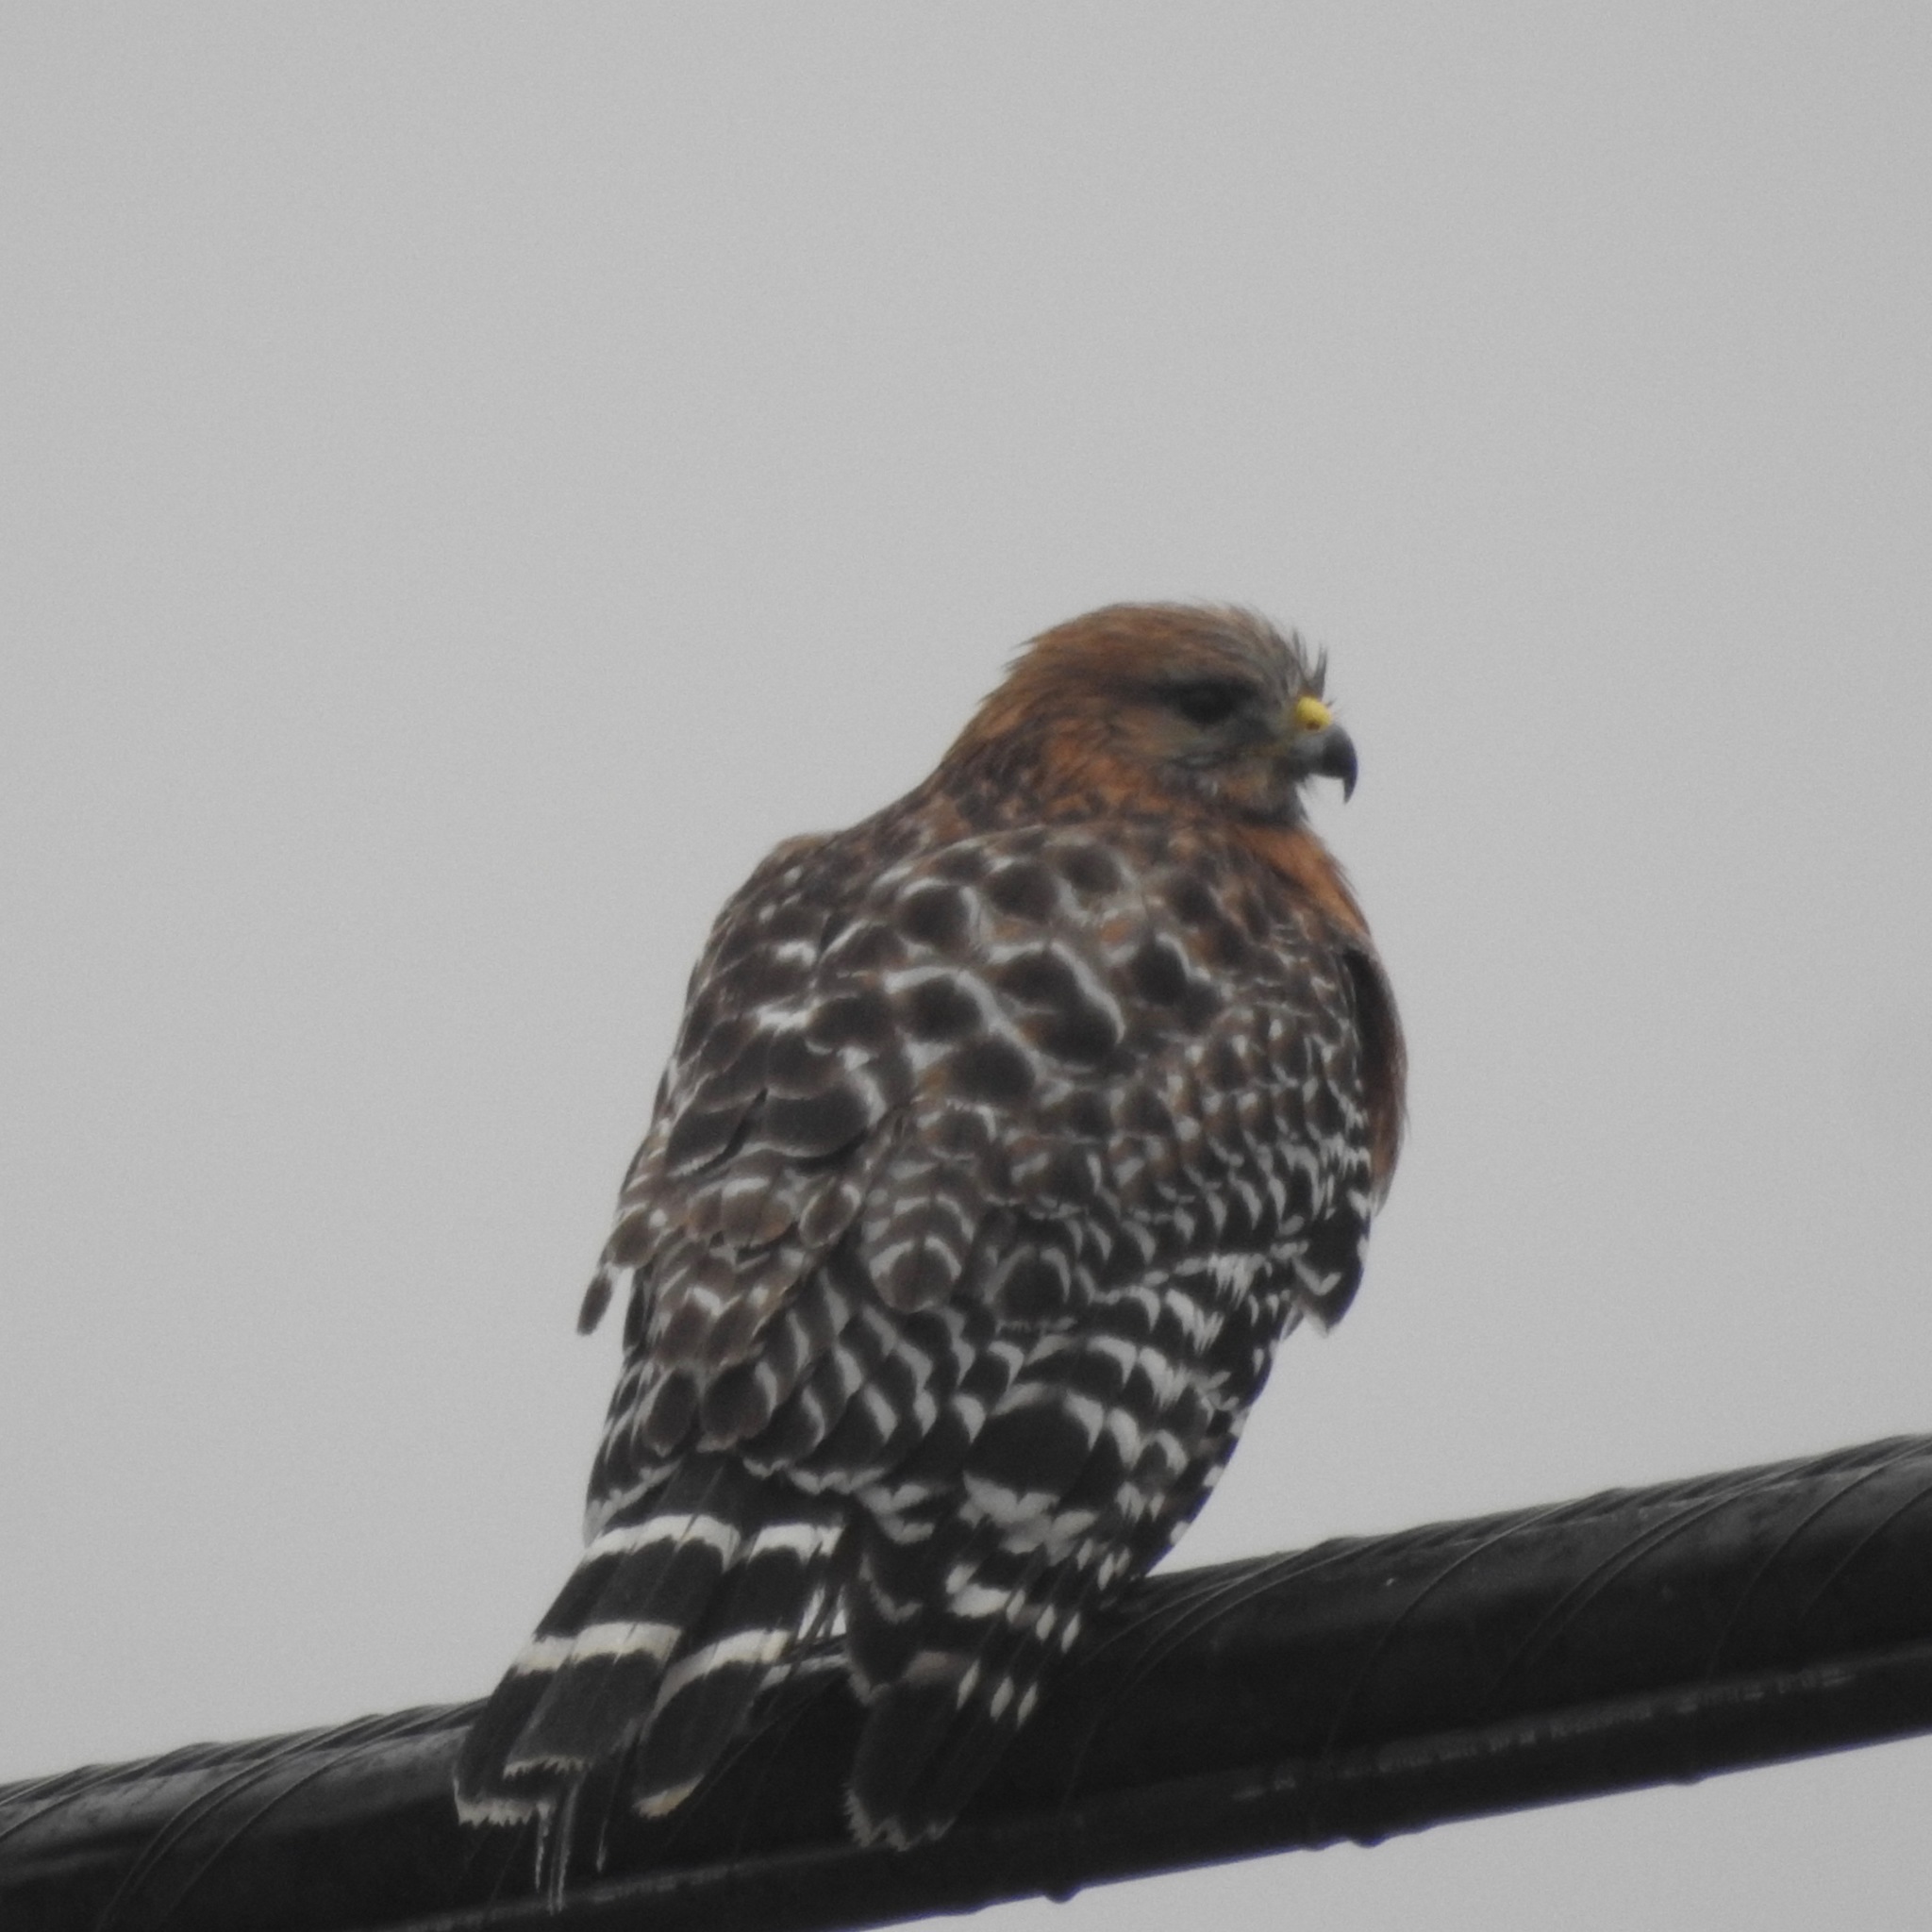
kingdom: Animalia
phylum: Chordata
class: Aves
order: Accipitriformes
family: Accipitridae
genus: Buteo
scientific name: Buteo lineatus
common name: Red-shouldered hawk
